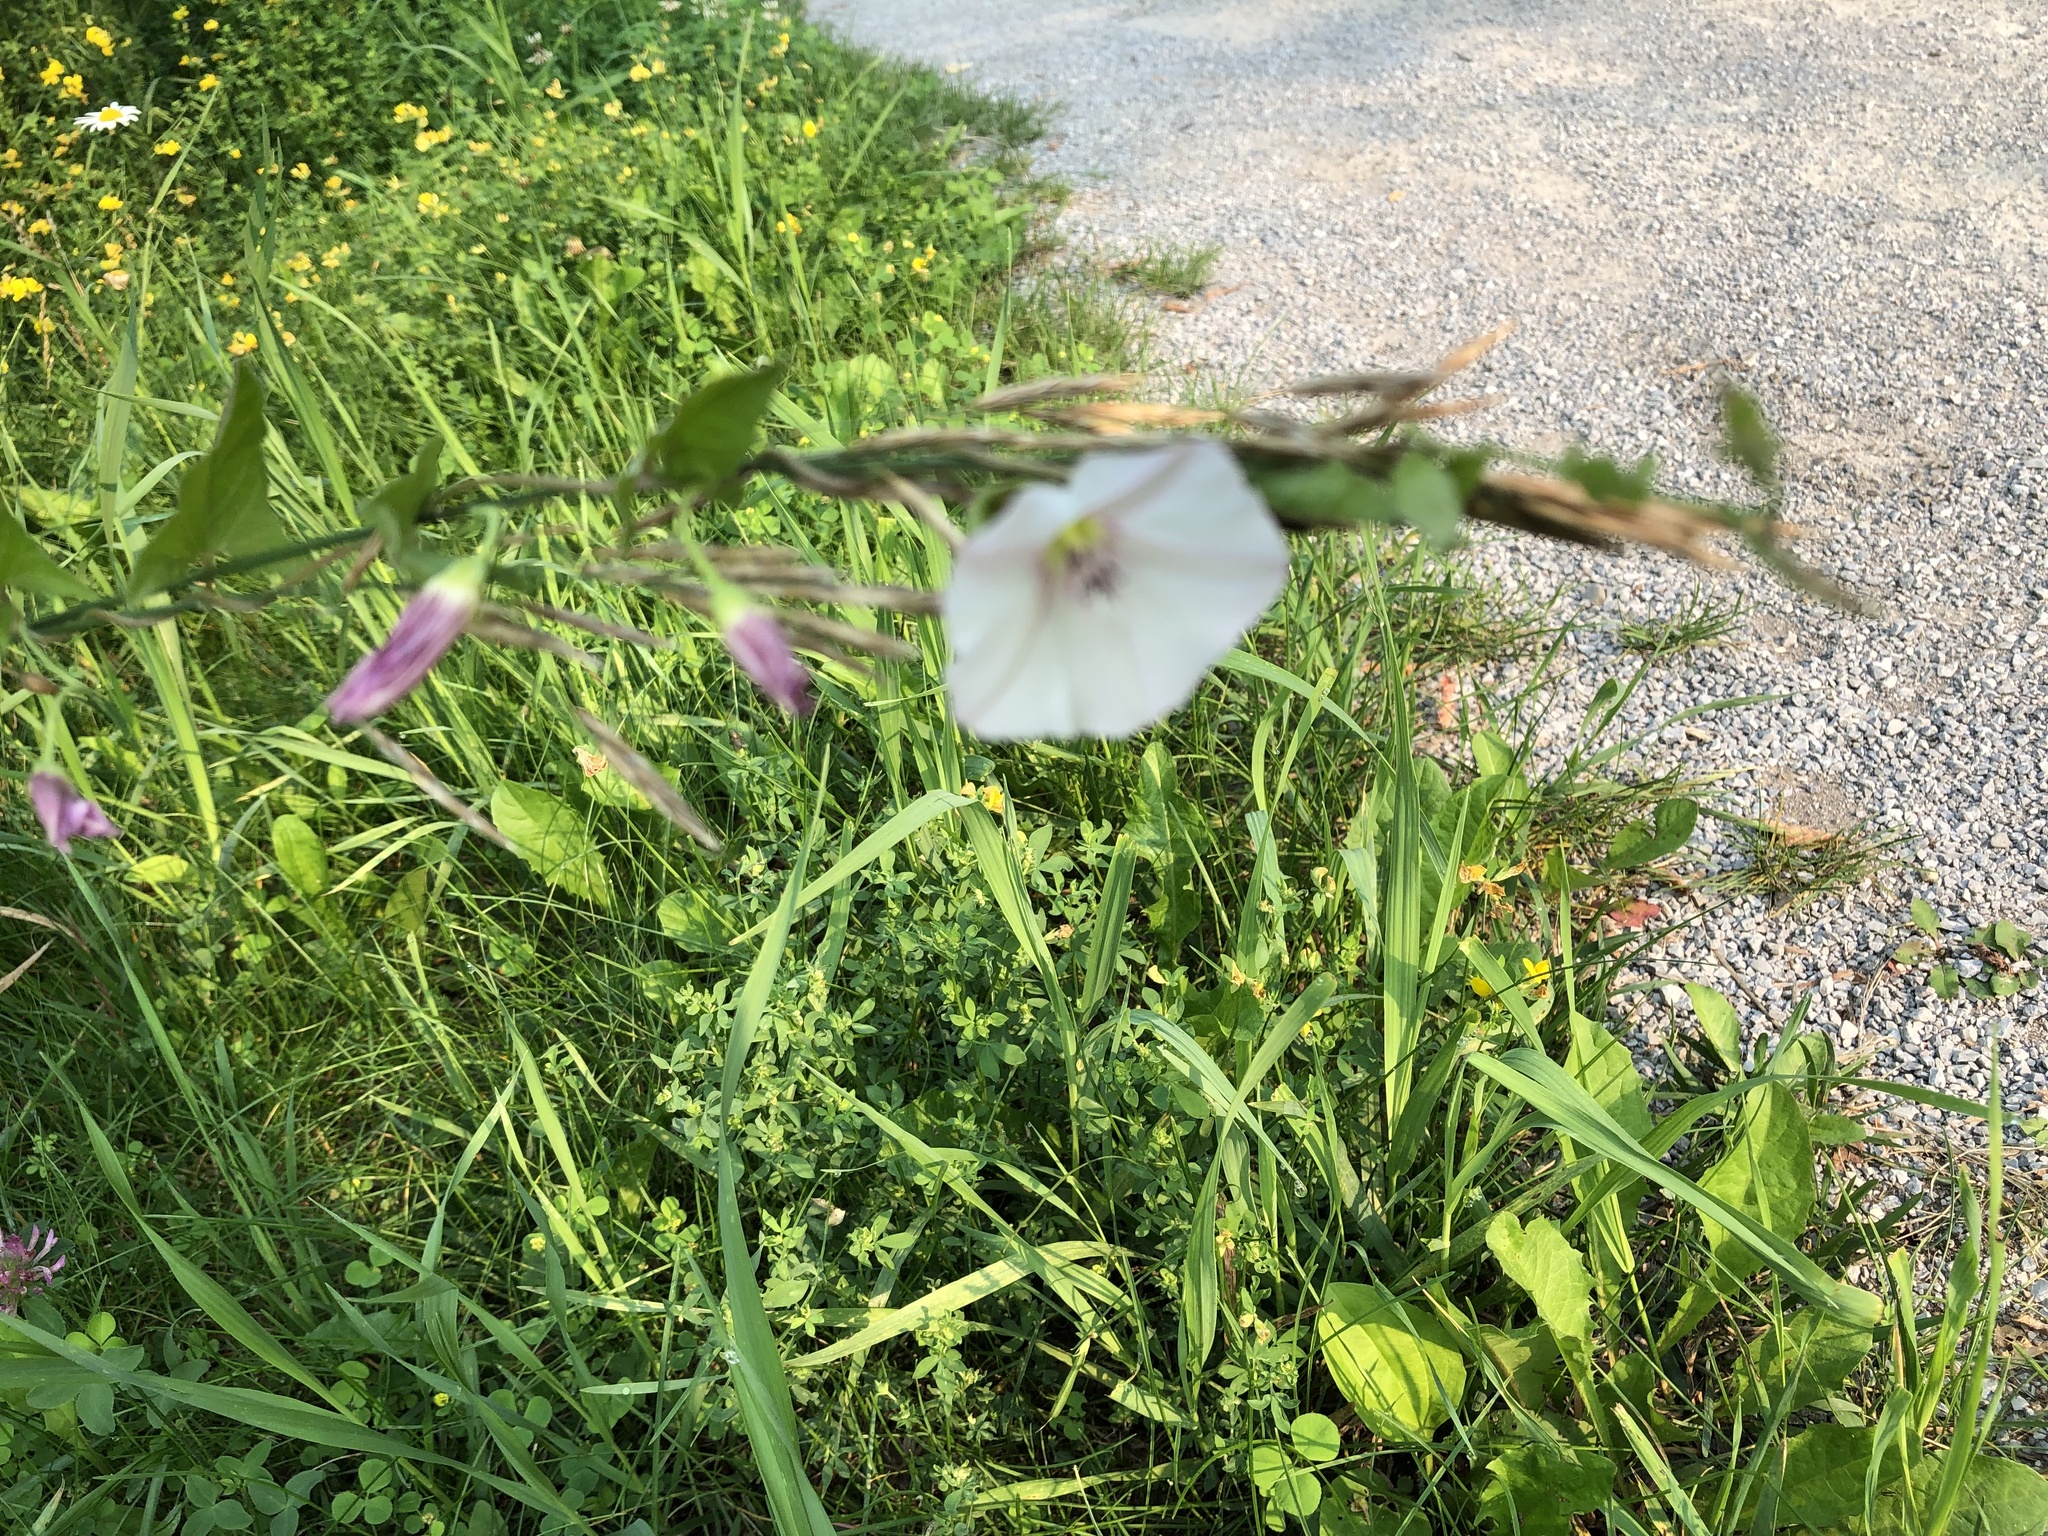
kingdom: Plantae
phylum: Tracheophyta
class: Magnoliopsida
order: Solanales
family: Convolvulaceae
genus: Convolvulus
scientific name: Convolvulus arvensis
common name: Field bindweed
